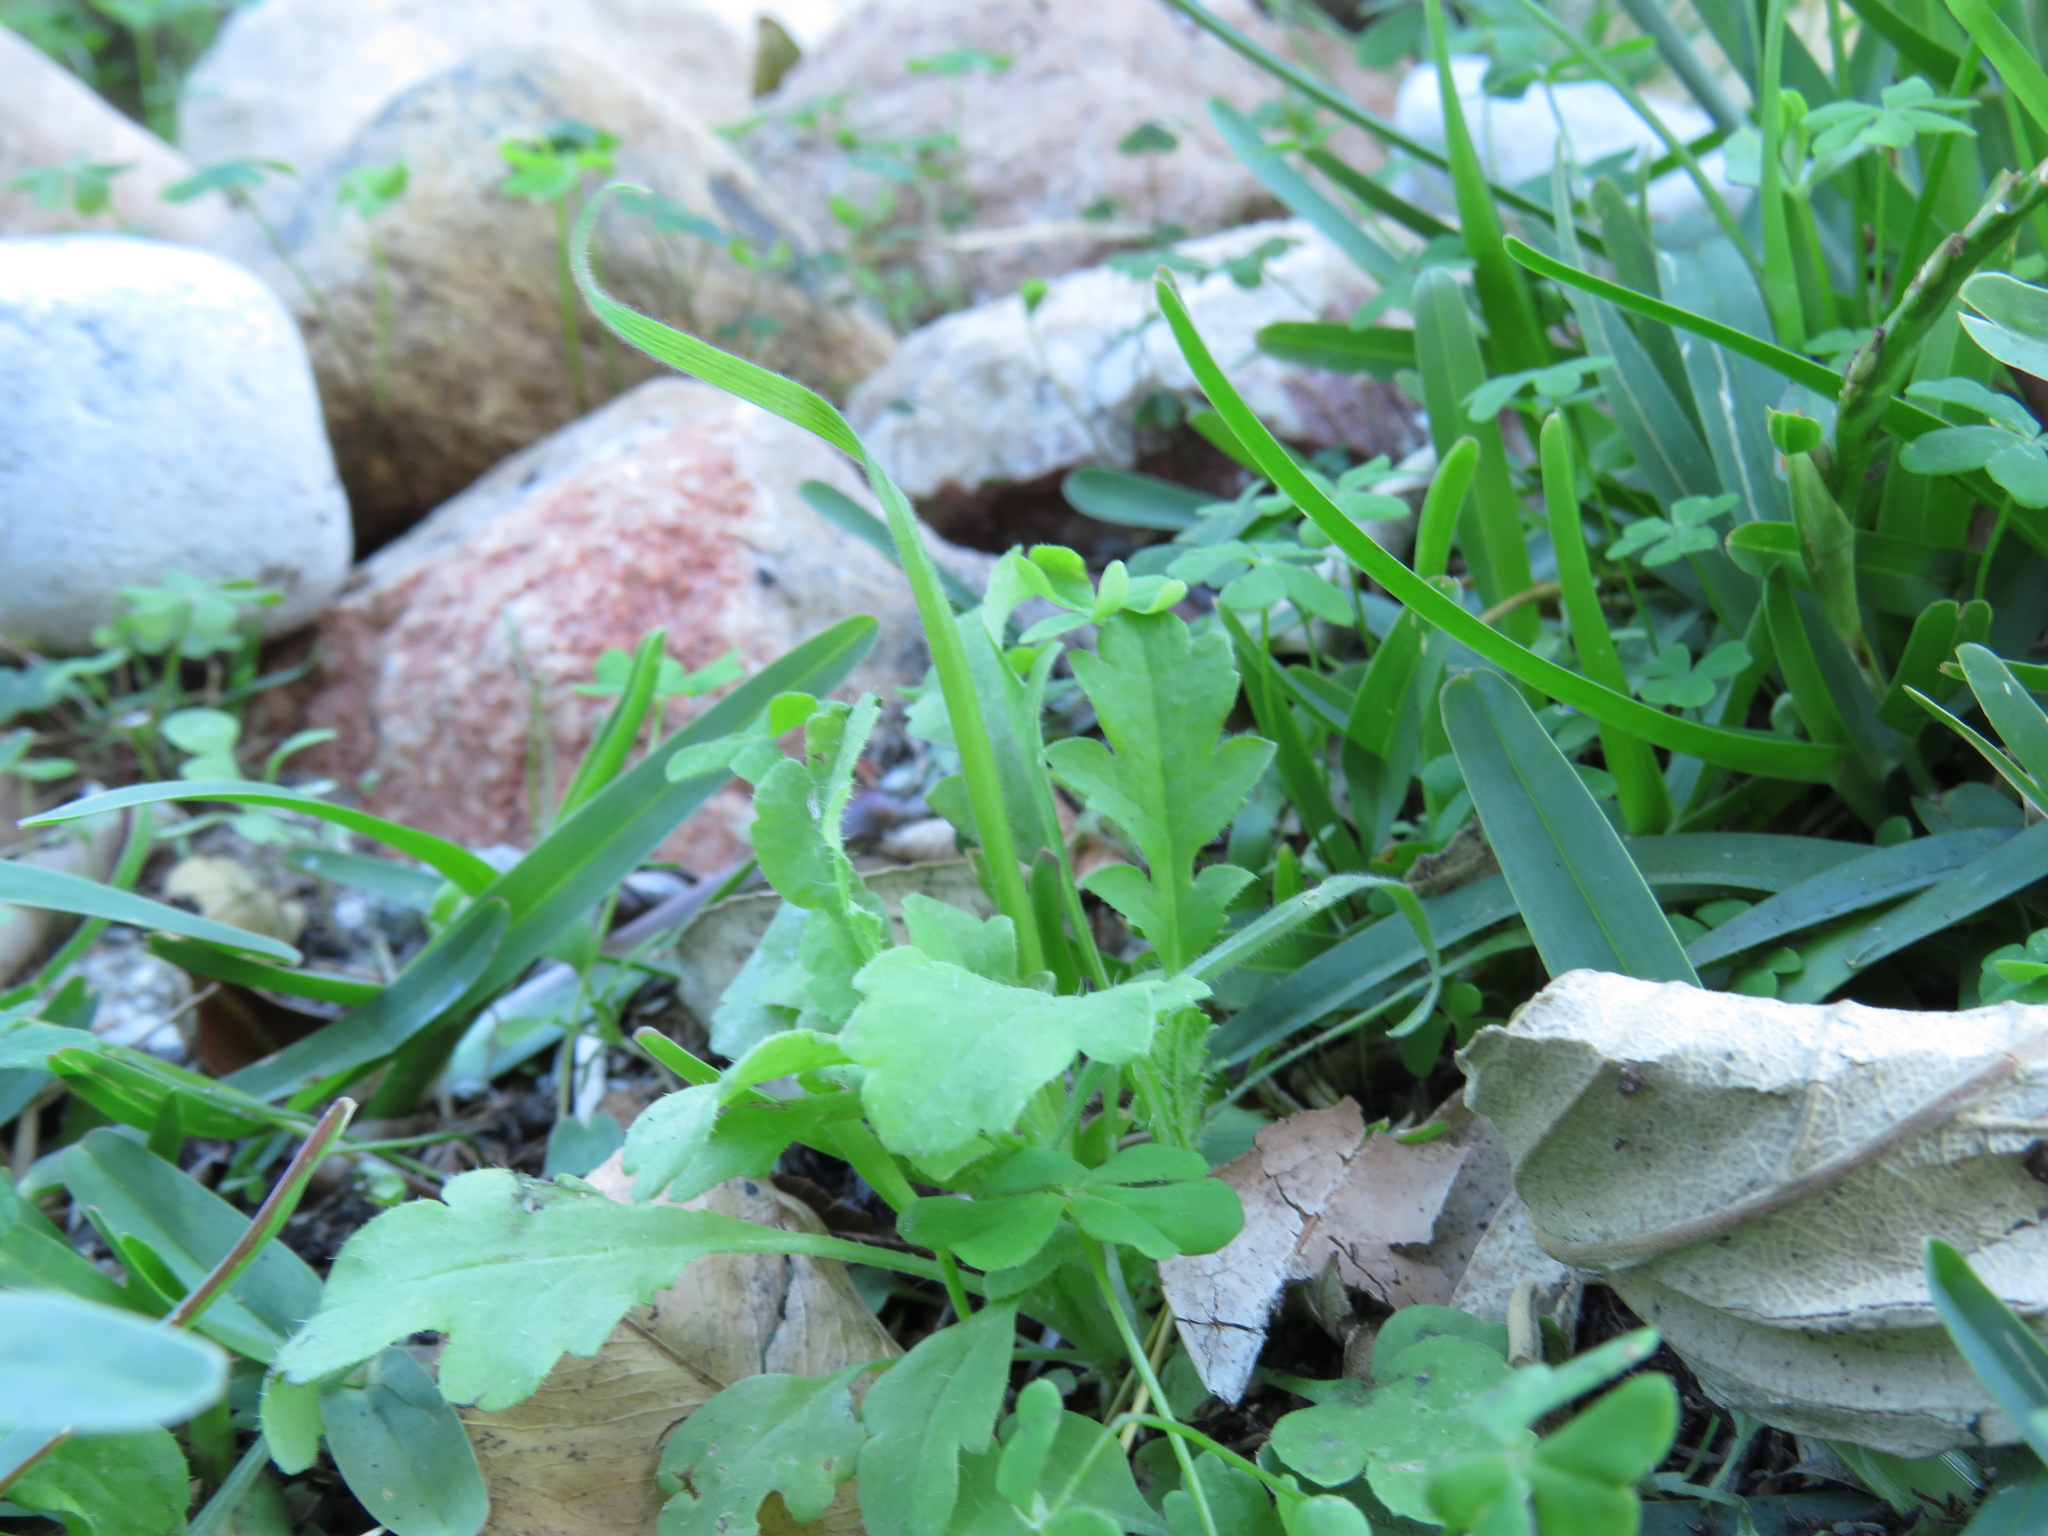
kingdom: Plantae
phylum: Tracheophyta
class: Liliopsida
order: Poales
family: Poaceae
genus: Lagurus
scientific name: Lagurus ovatus
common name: Hare's-tail
